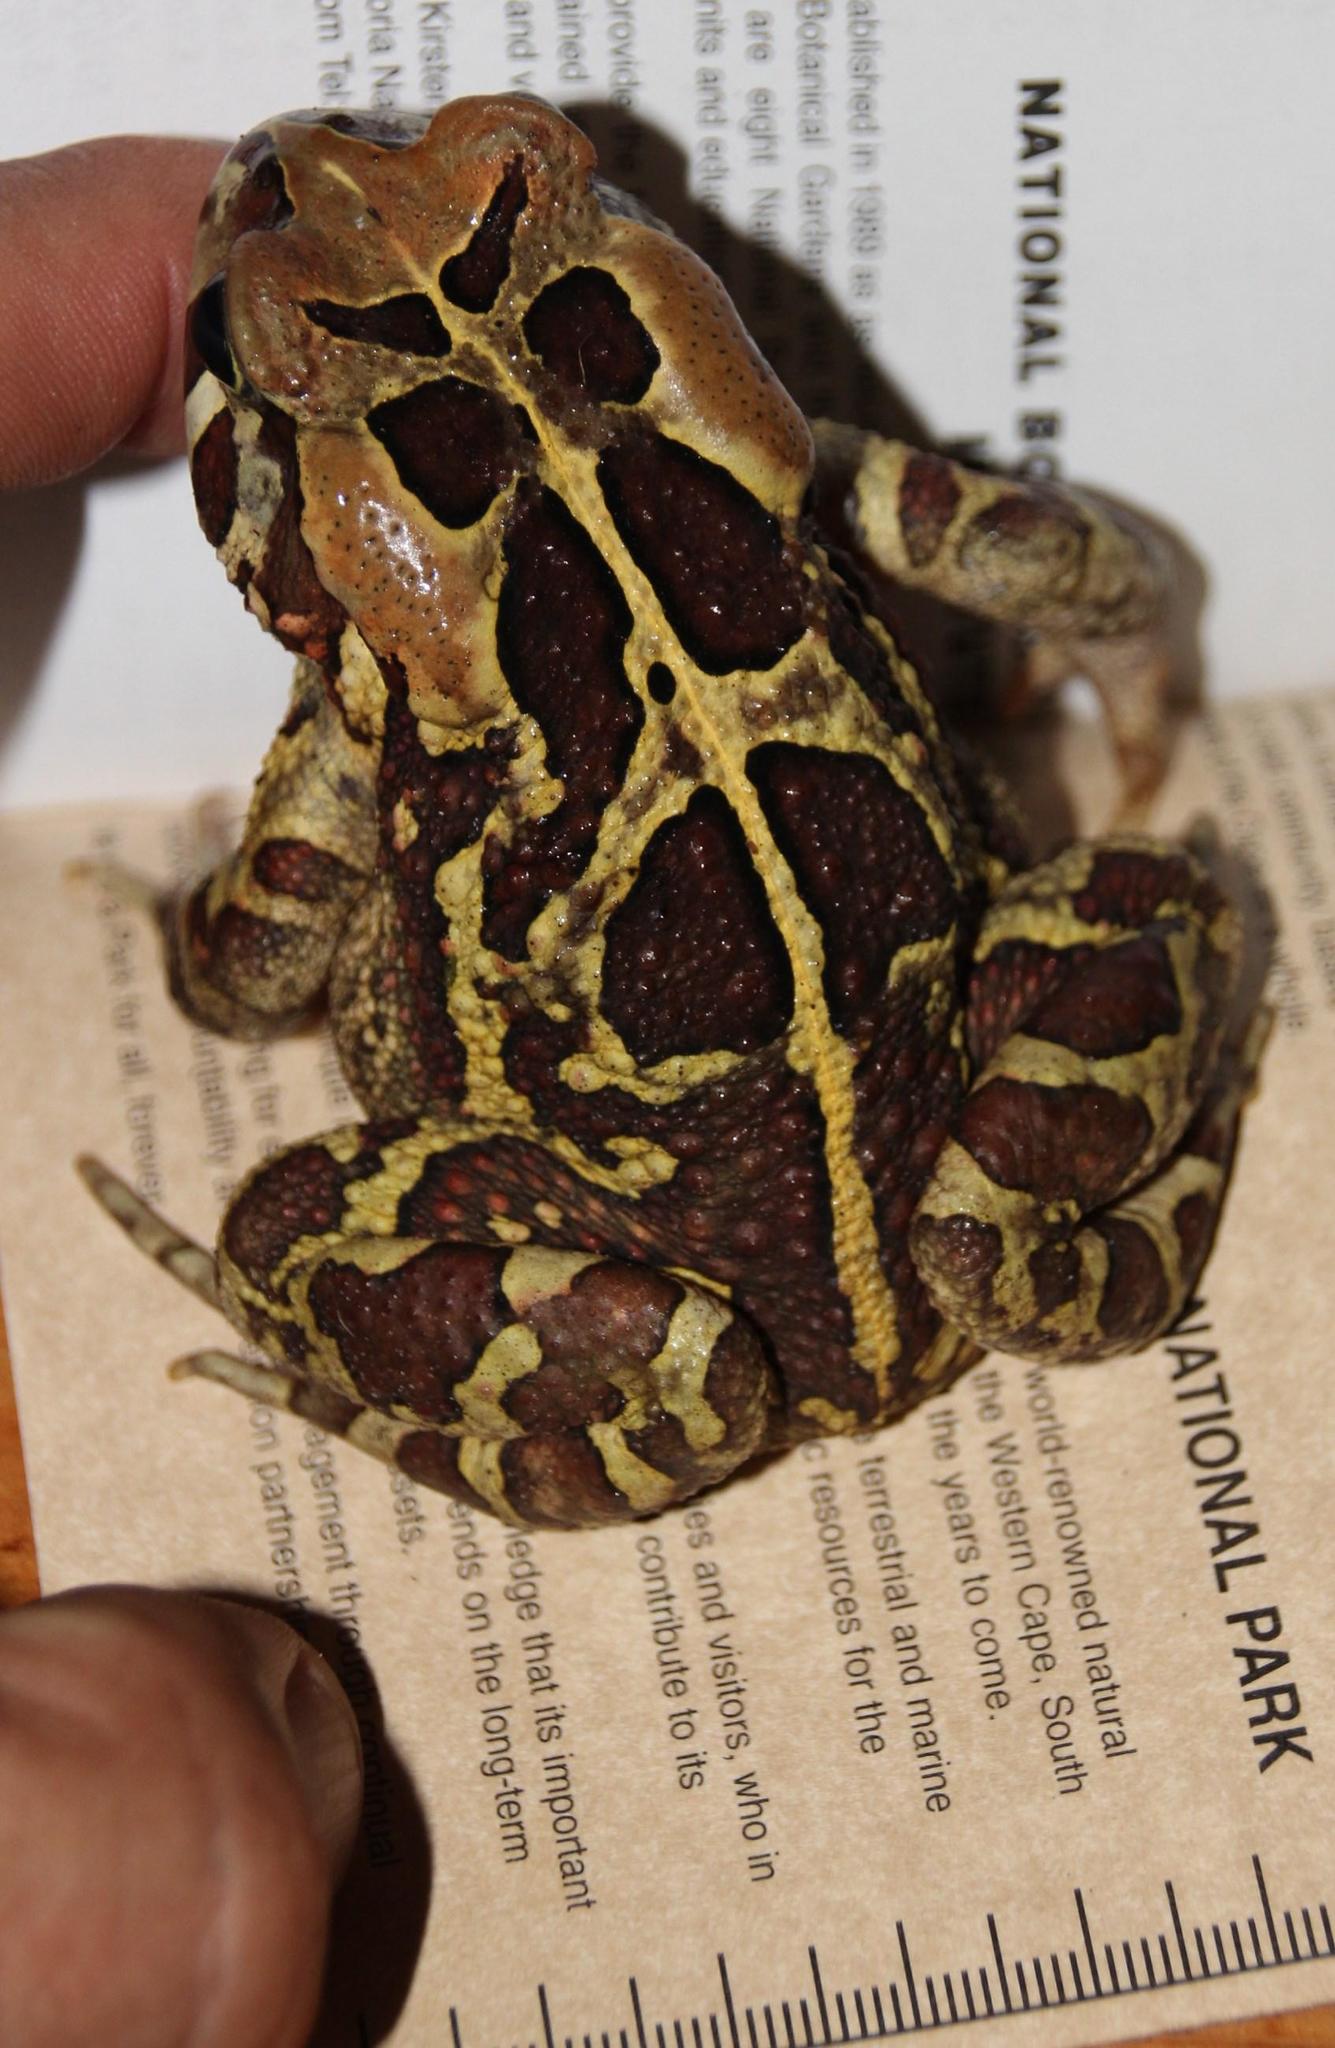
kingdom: Animalia
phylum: Chordata
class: Amphibia
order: Anura
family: Bufonidae
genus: Sclerophrys
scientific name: Sclerophrys pantherina
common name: Panther toad
